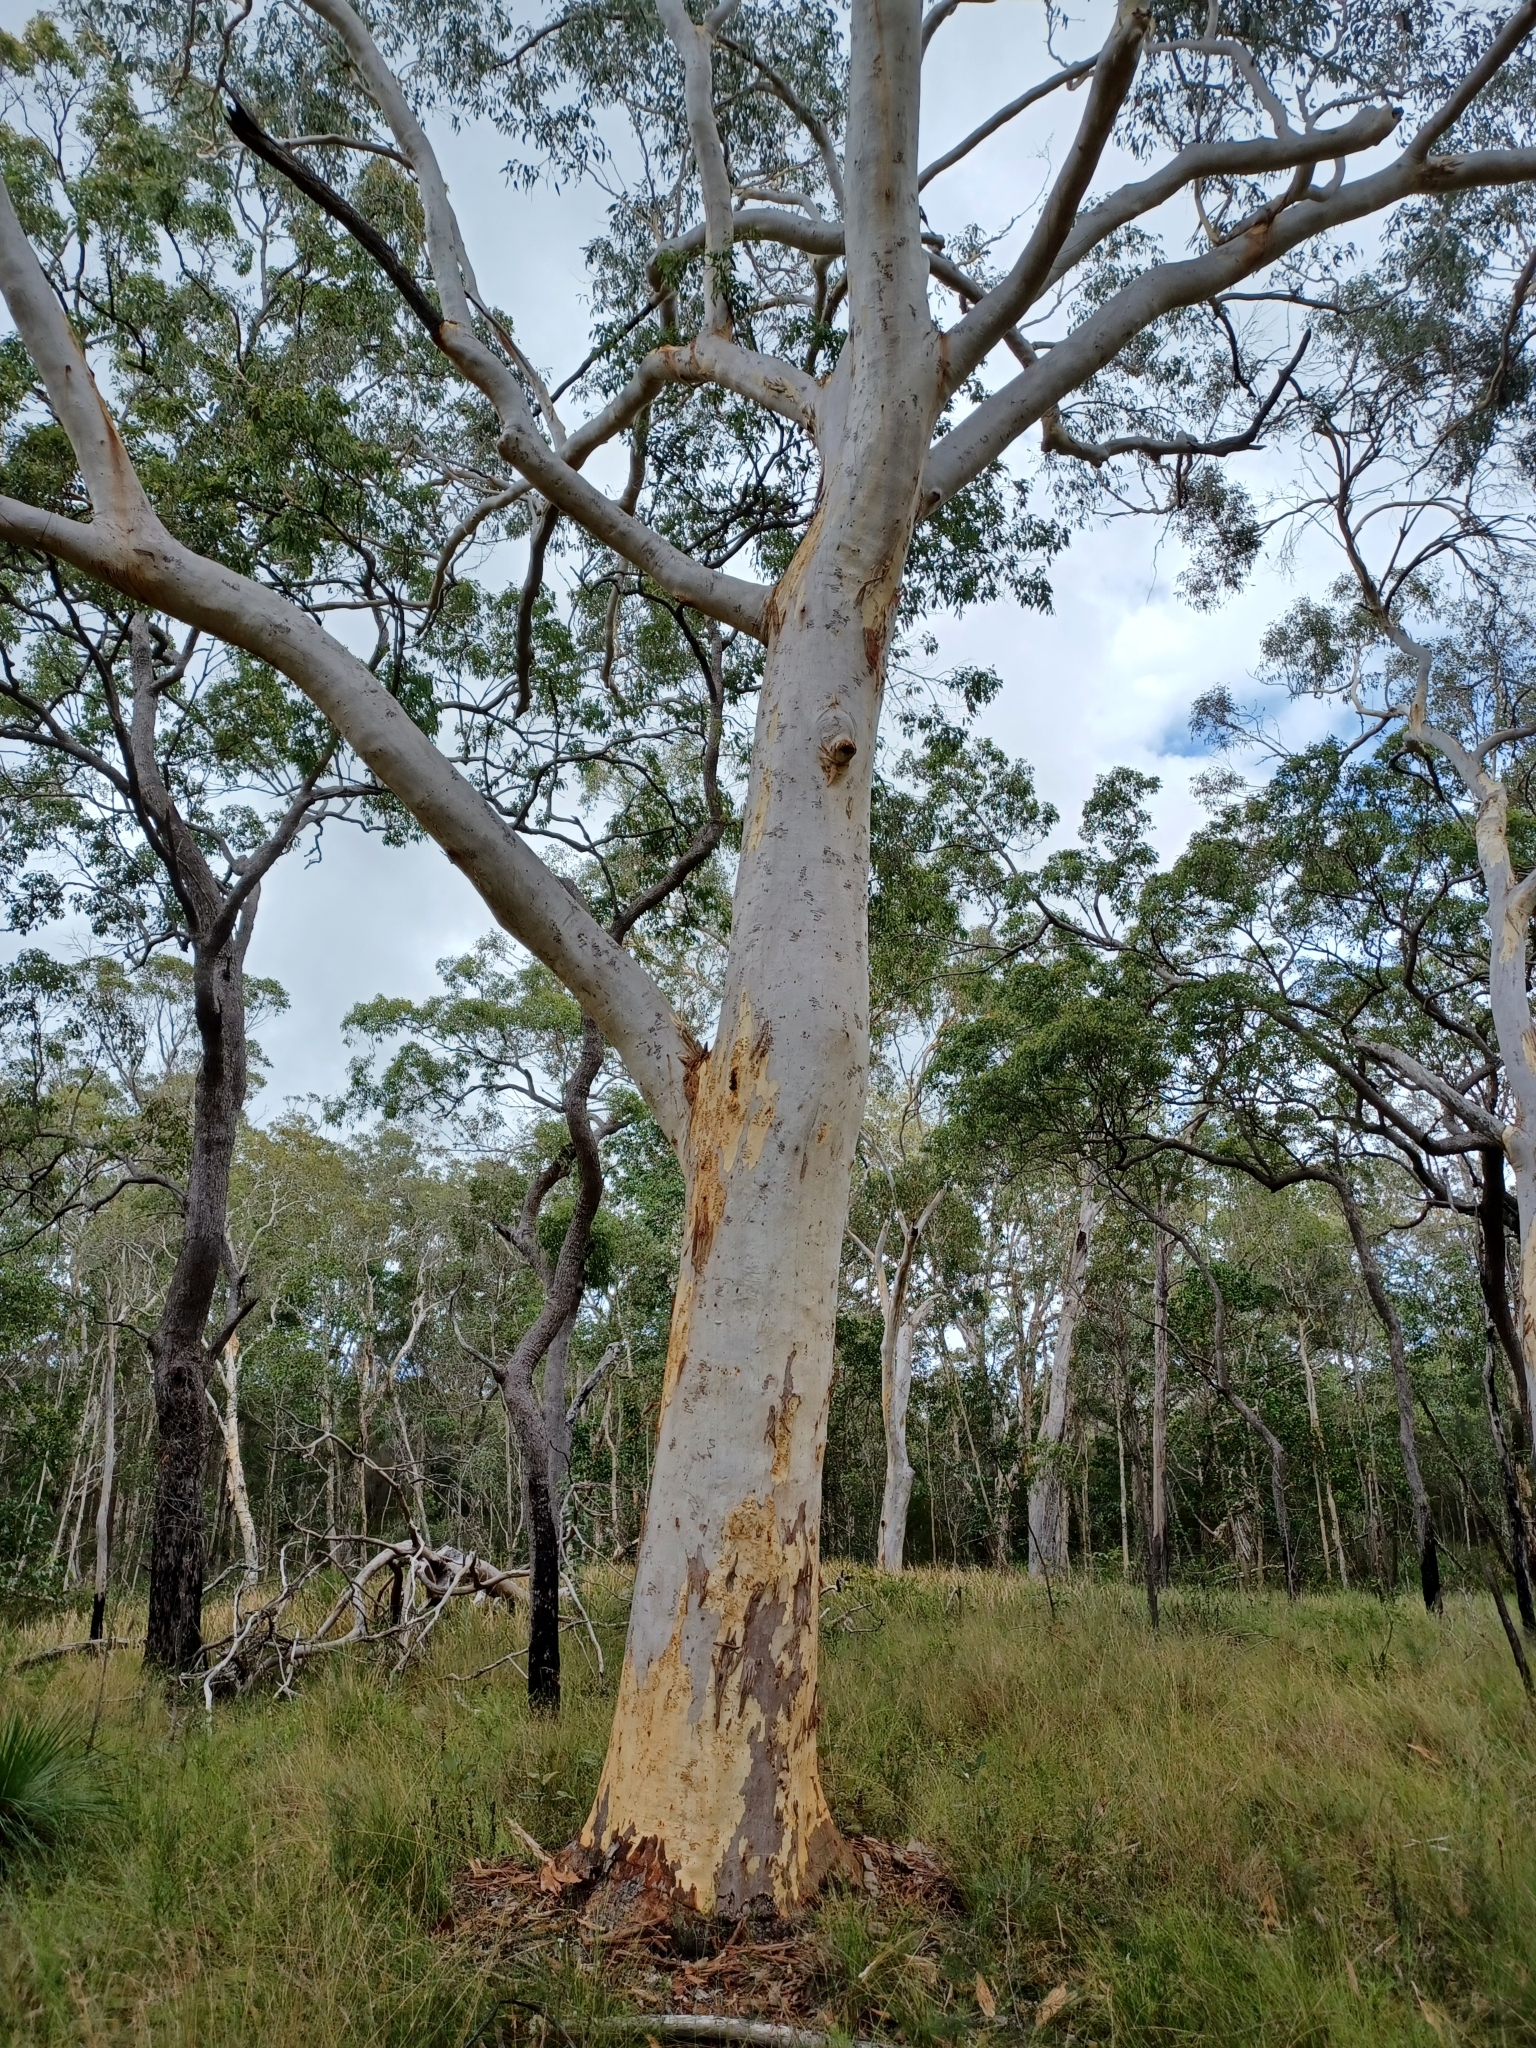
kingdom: Plantae
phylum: Tracheophyta
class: Magnoliopsida
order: Myrtales
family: Myrtaceae
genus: Eucalyptus
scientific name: Eucalyptus racemosa
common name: Scribbly gum
